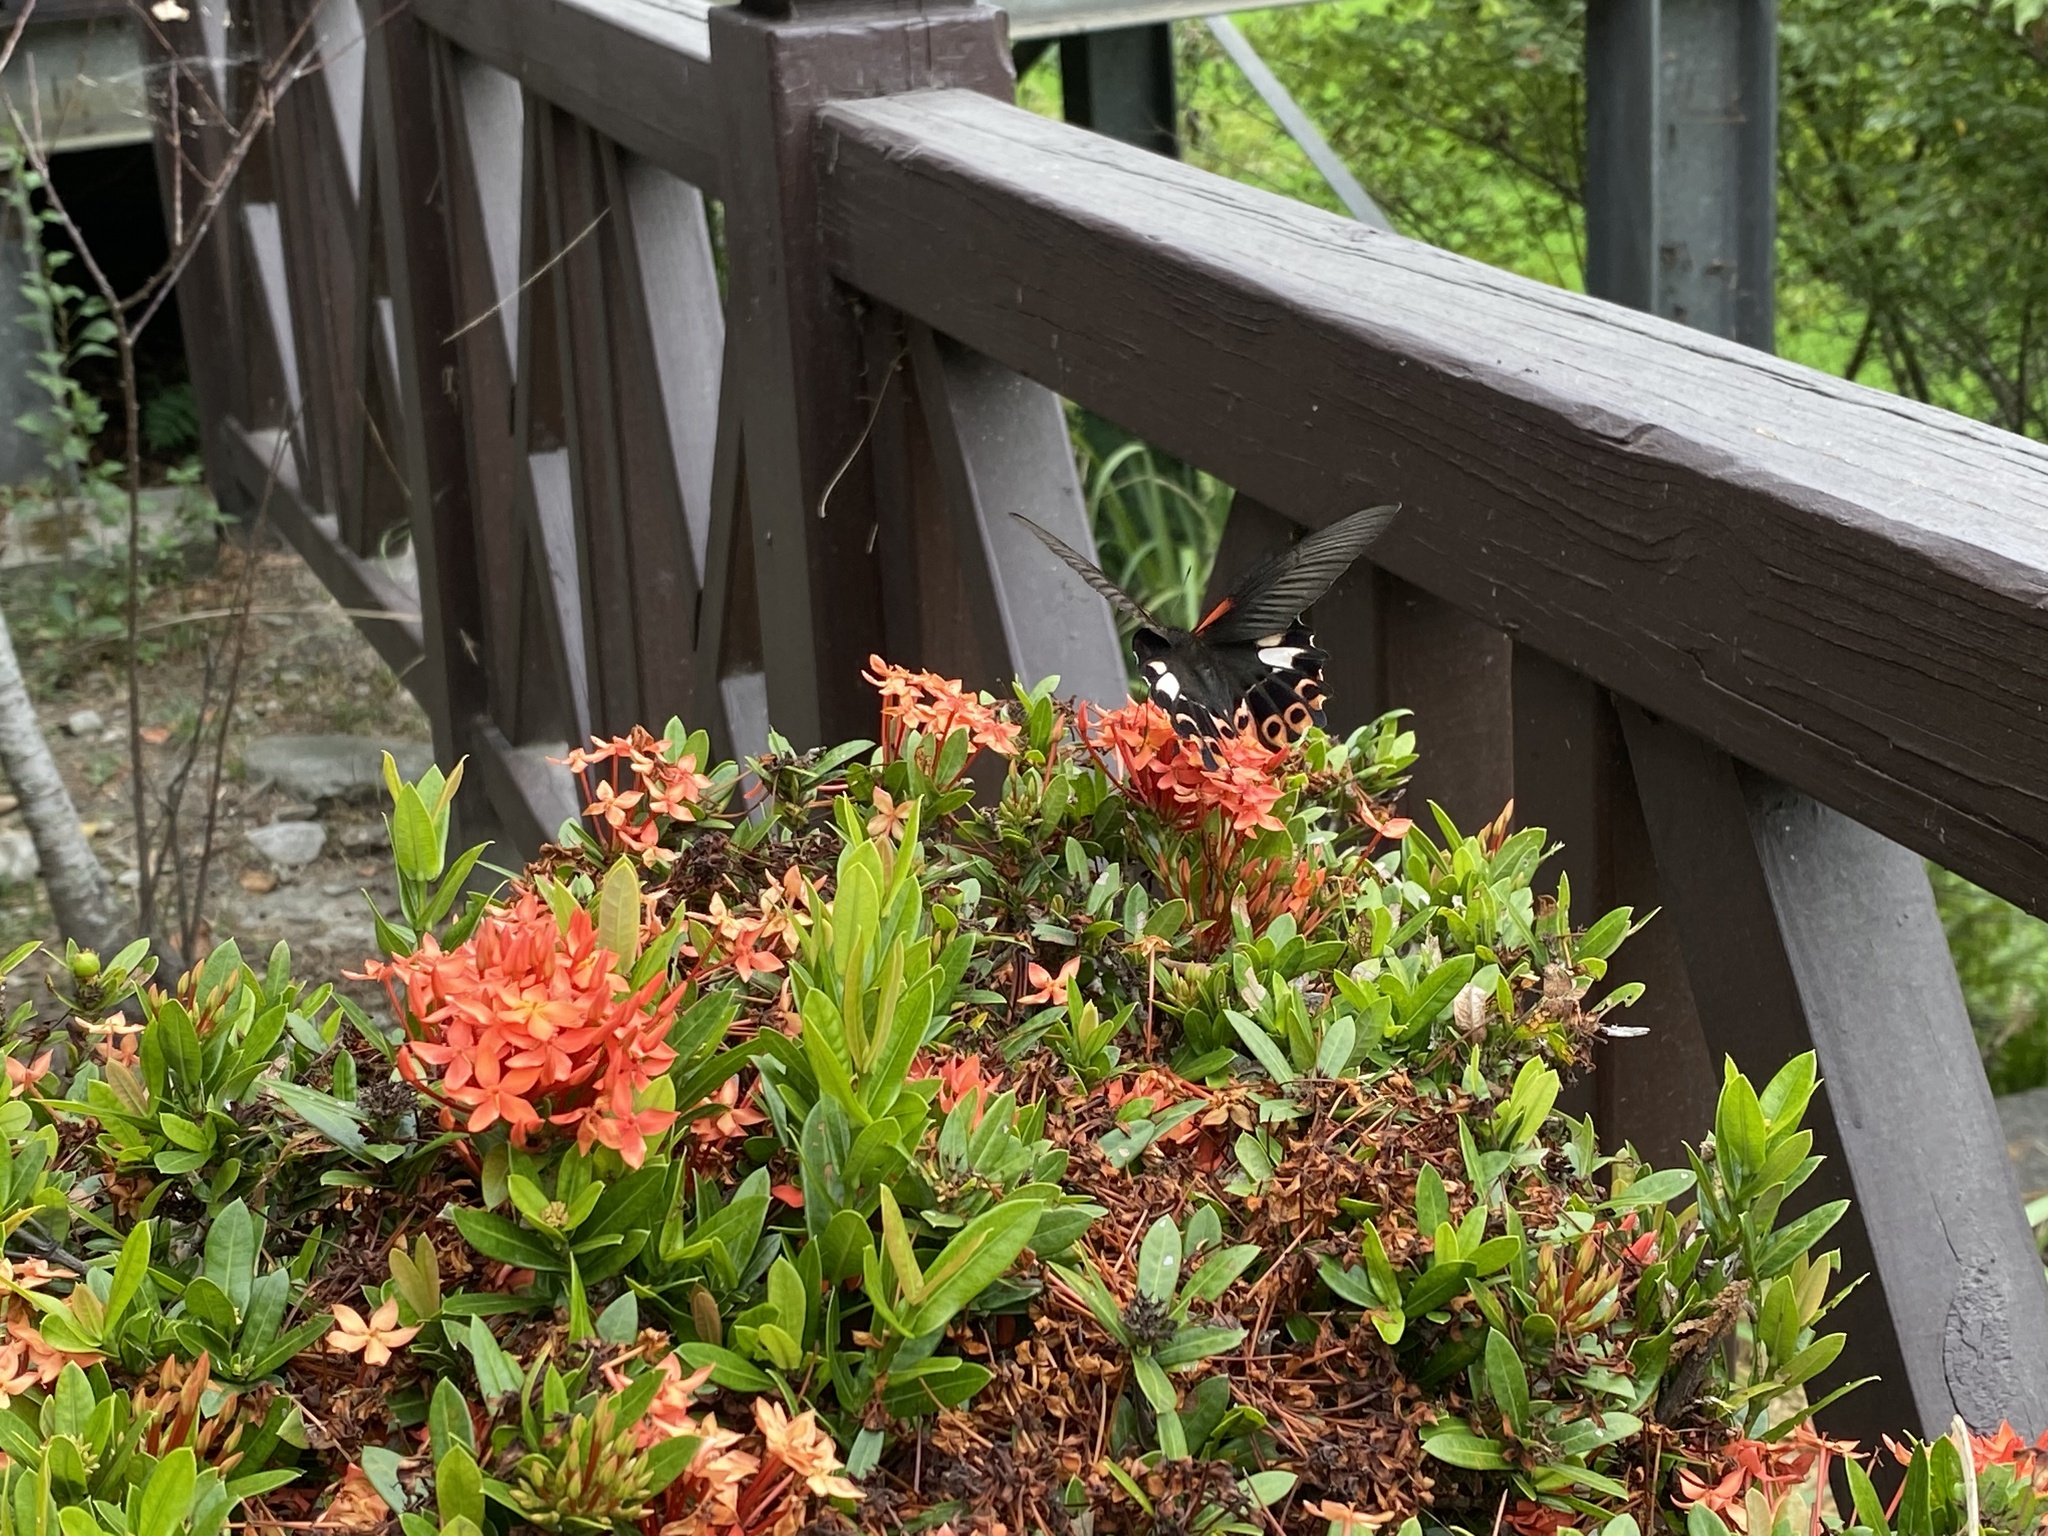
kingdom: Animalia
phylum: Arthropoda
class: Insecta
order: Lepidoptera
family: Papilionidae
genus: Papilio
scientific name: Papilio thaiwanus
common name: Formosan swallowtail
